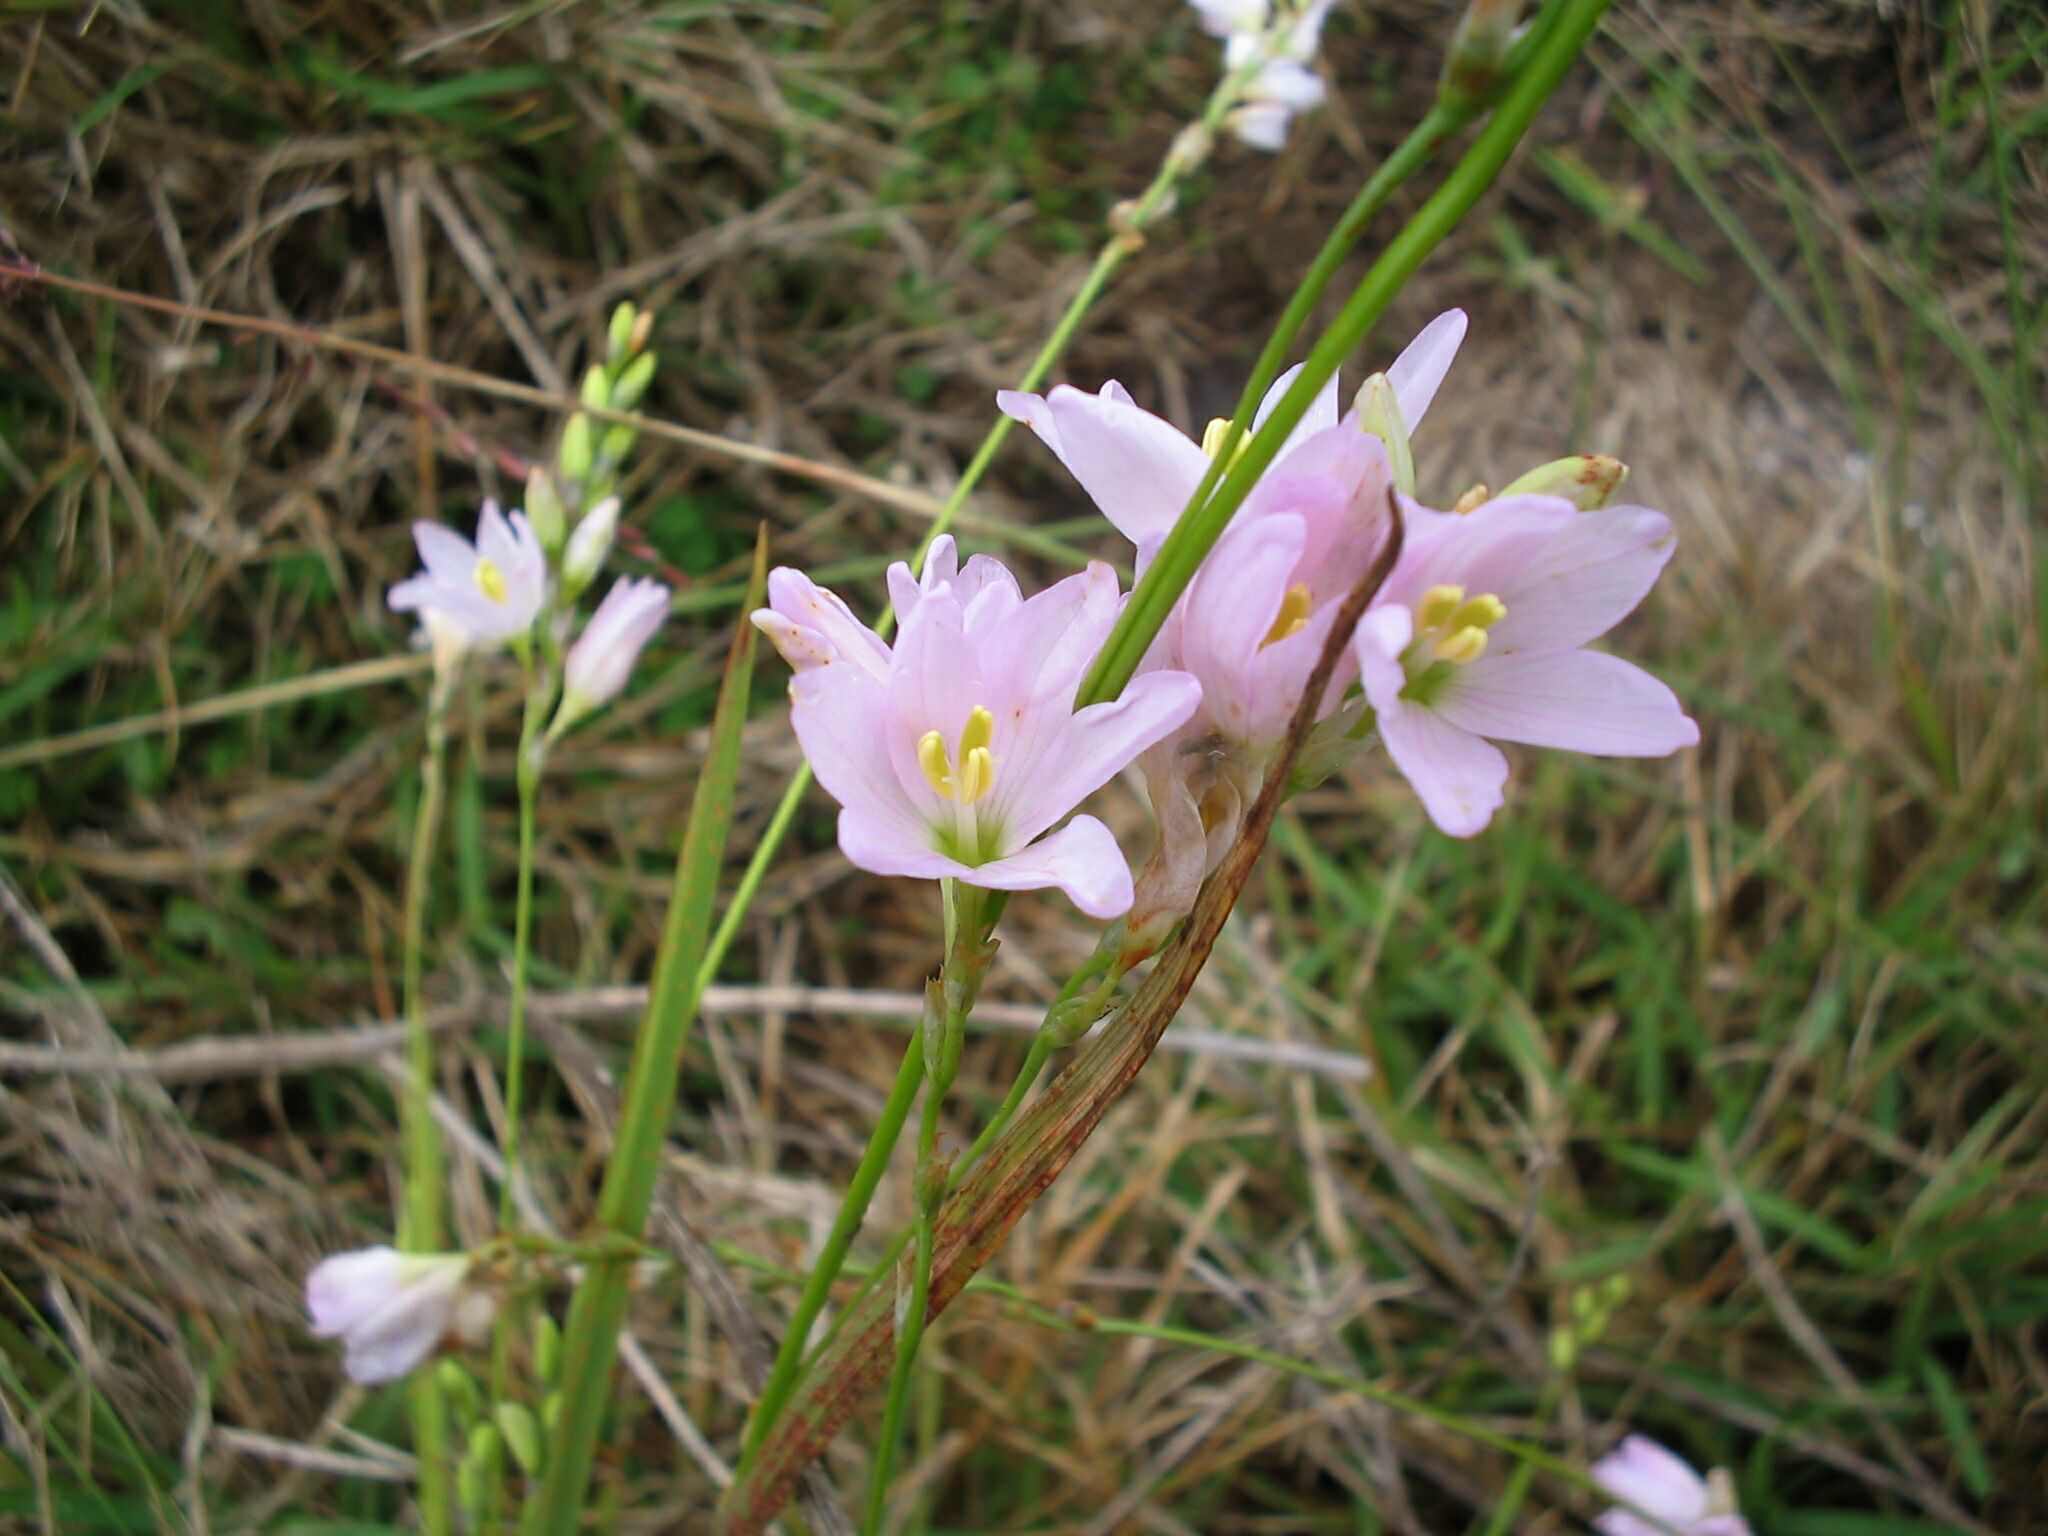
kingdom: Plantae
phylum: Tracheophyta
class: Liliopsida
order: Asparagales
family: Iridaceae
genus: Ixia
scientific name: Ixia orientalis
